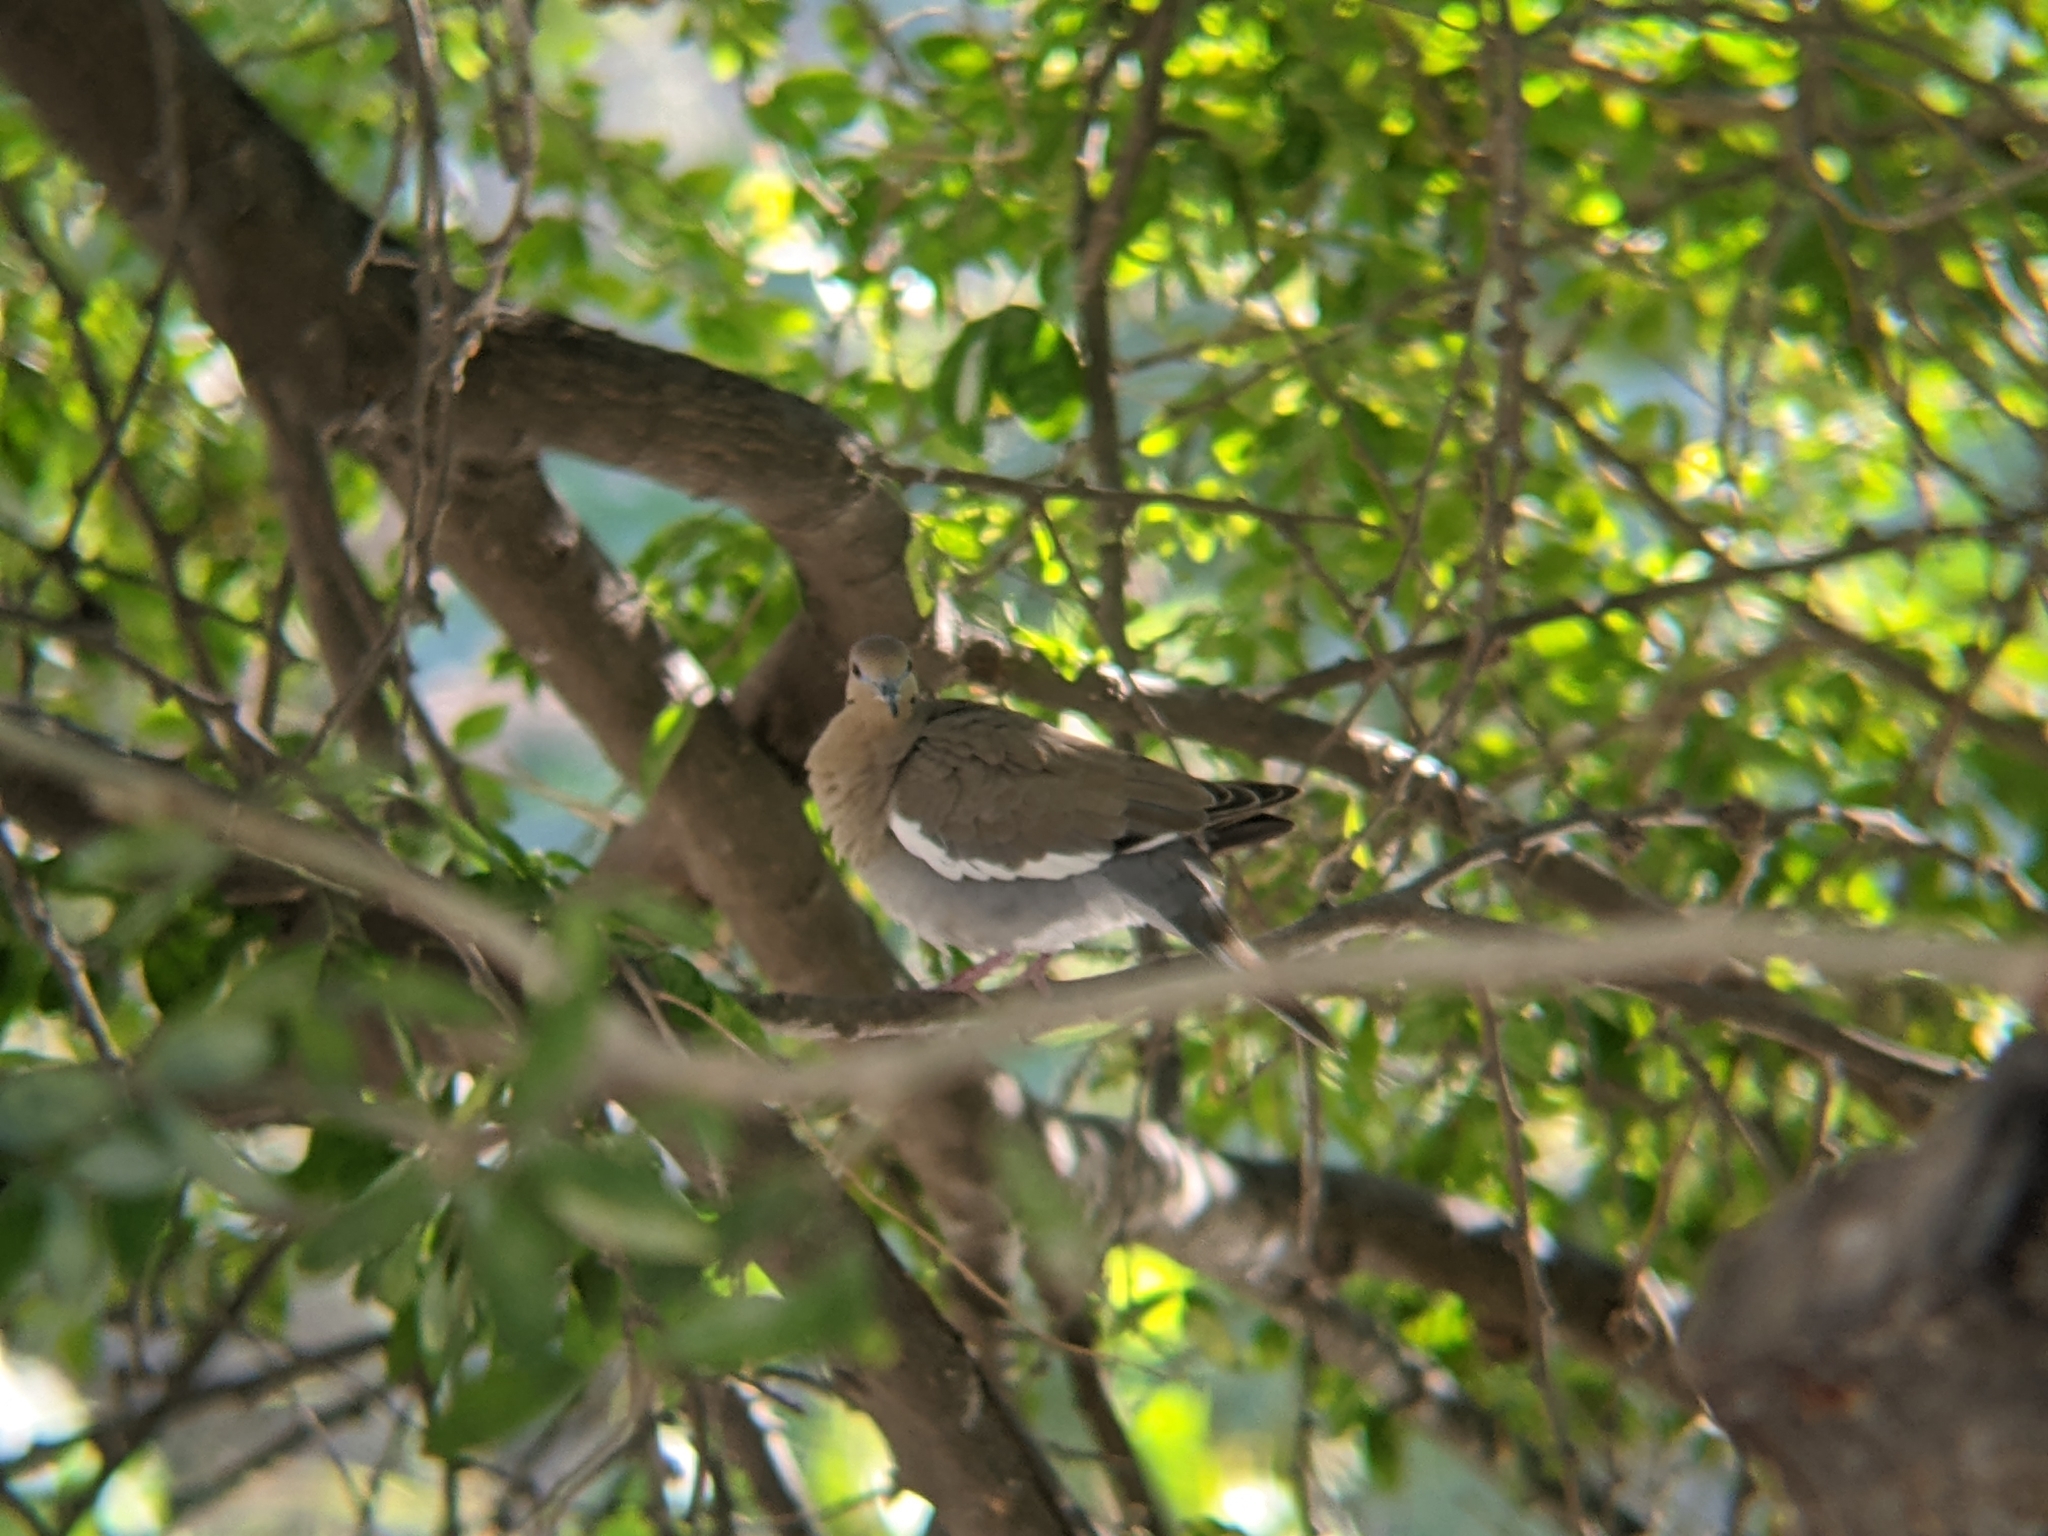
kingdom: Animalia
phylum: Chordata
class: Aves
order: Columbiformes
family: Columbidae
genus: Zenaida
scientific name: Zenaida asiatica
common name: White-winged dove
